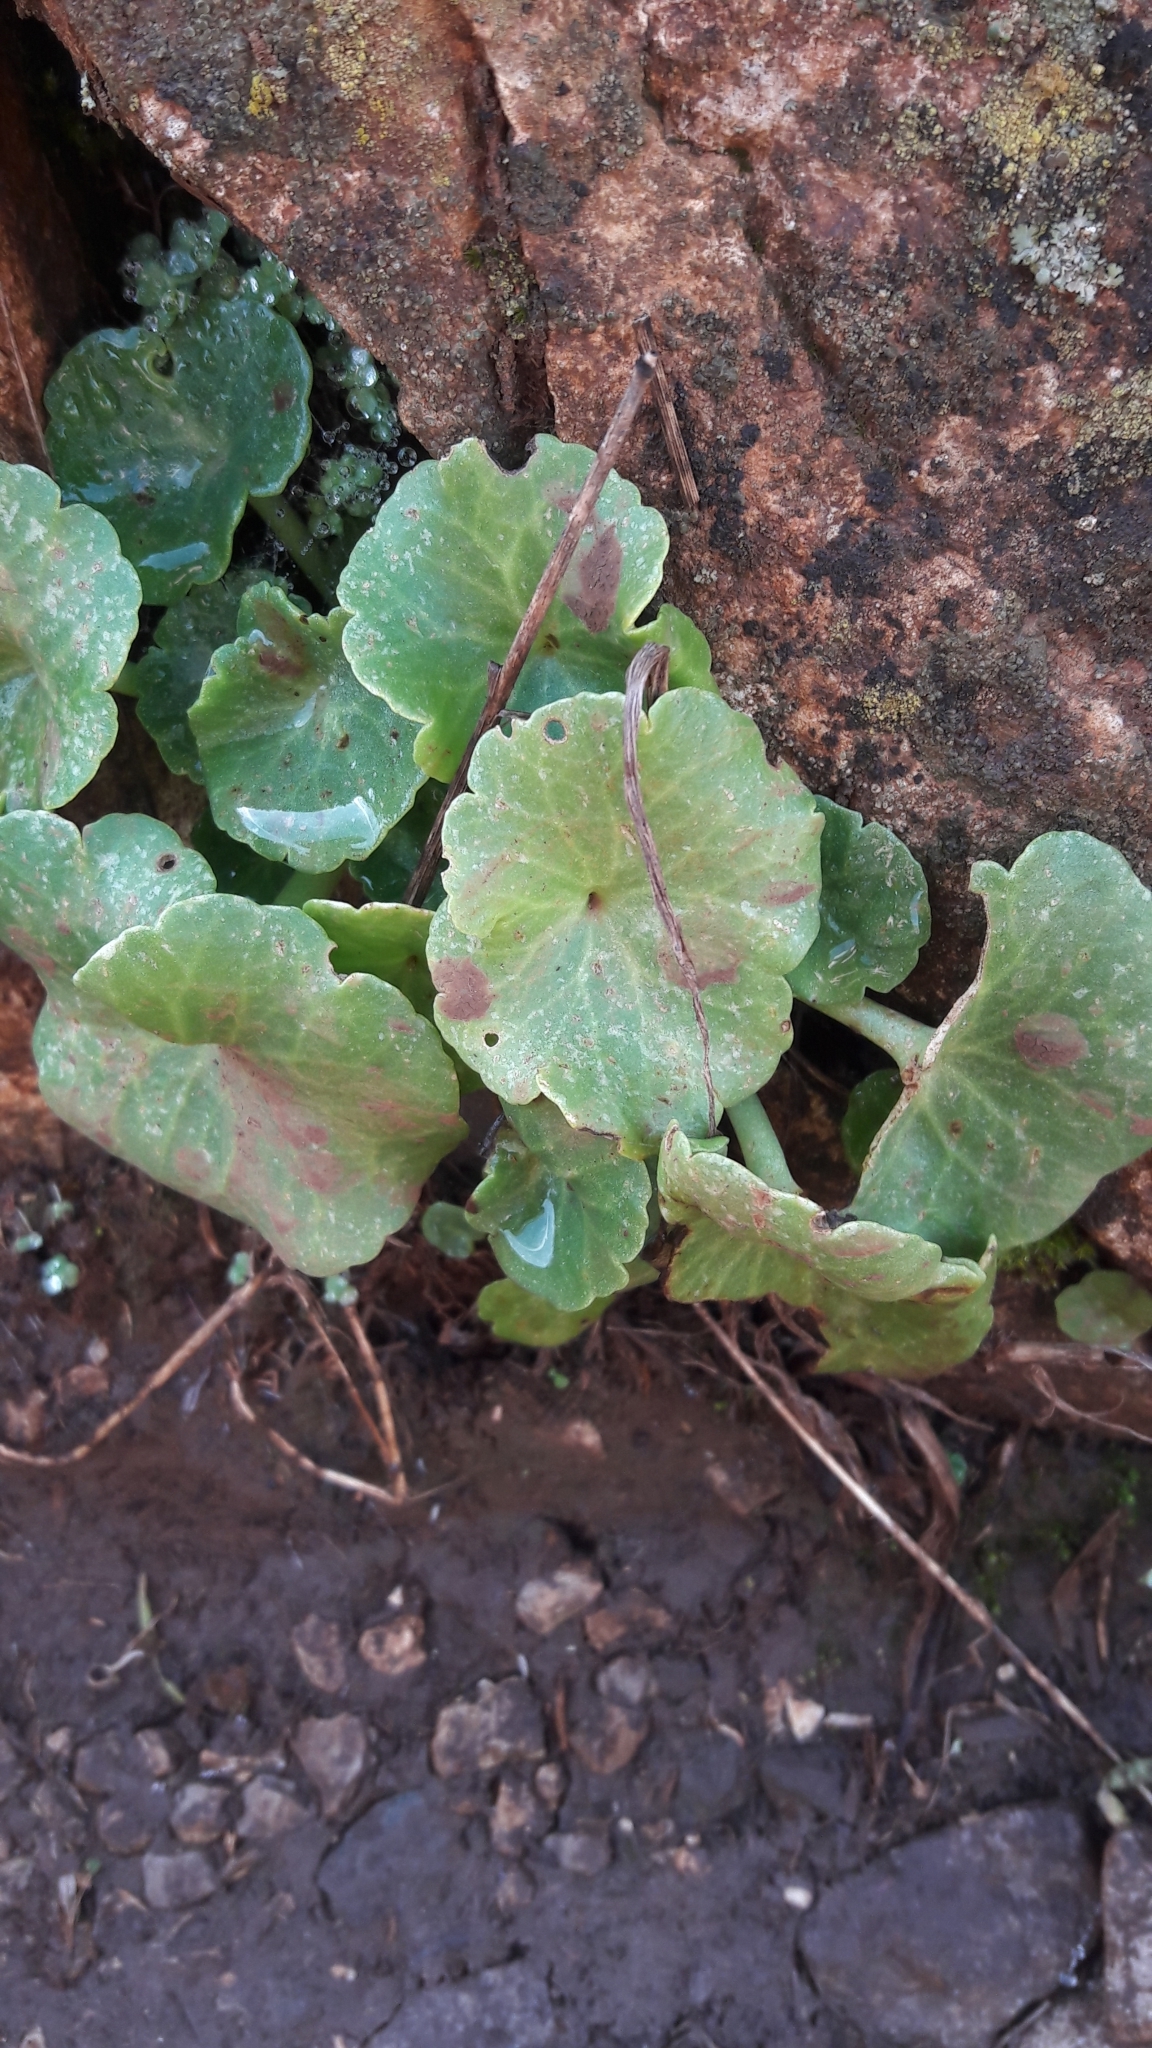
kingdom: Plantae
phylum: Tracheophyta
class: Magnoliopsida
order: Saxifragales
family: Crassulaceae
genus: Umbilicus
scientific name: Umbilicus rupestris
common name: Navelwort
